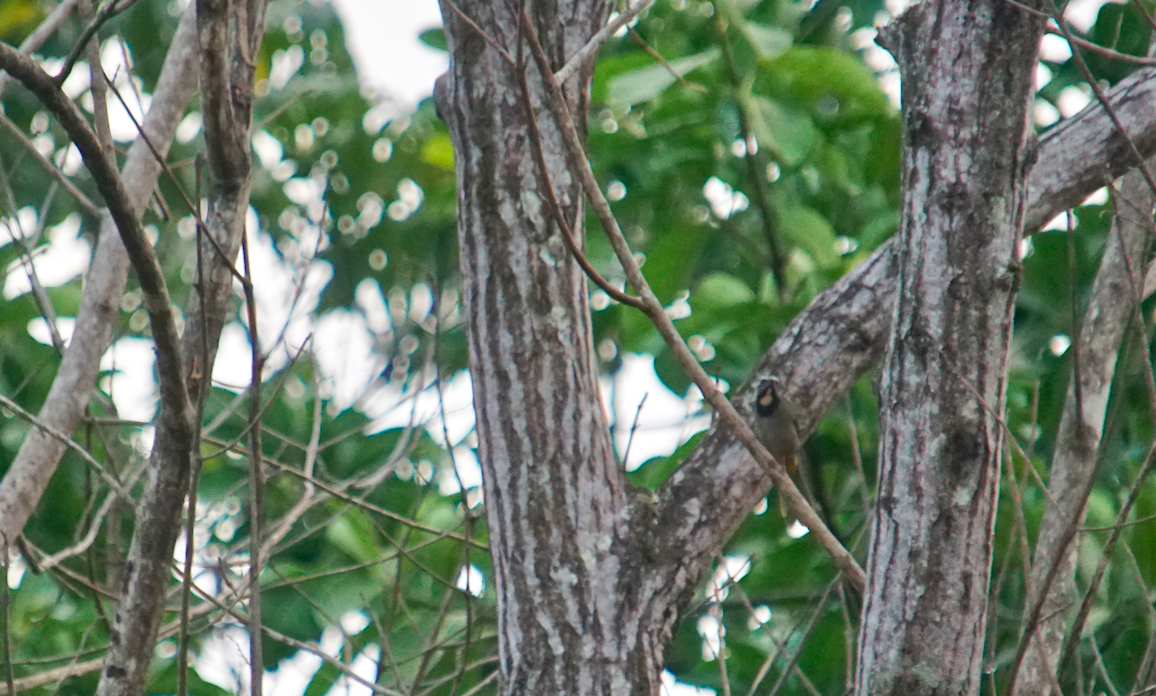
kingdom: Animalia
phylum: Chordata
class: Aves
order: Passeriformes
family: Thraupidae
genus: Saltator
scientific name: Saltator maximus
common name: Buff-throated saltator
